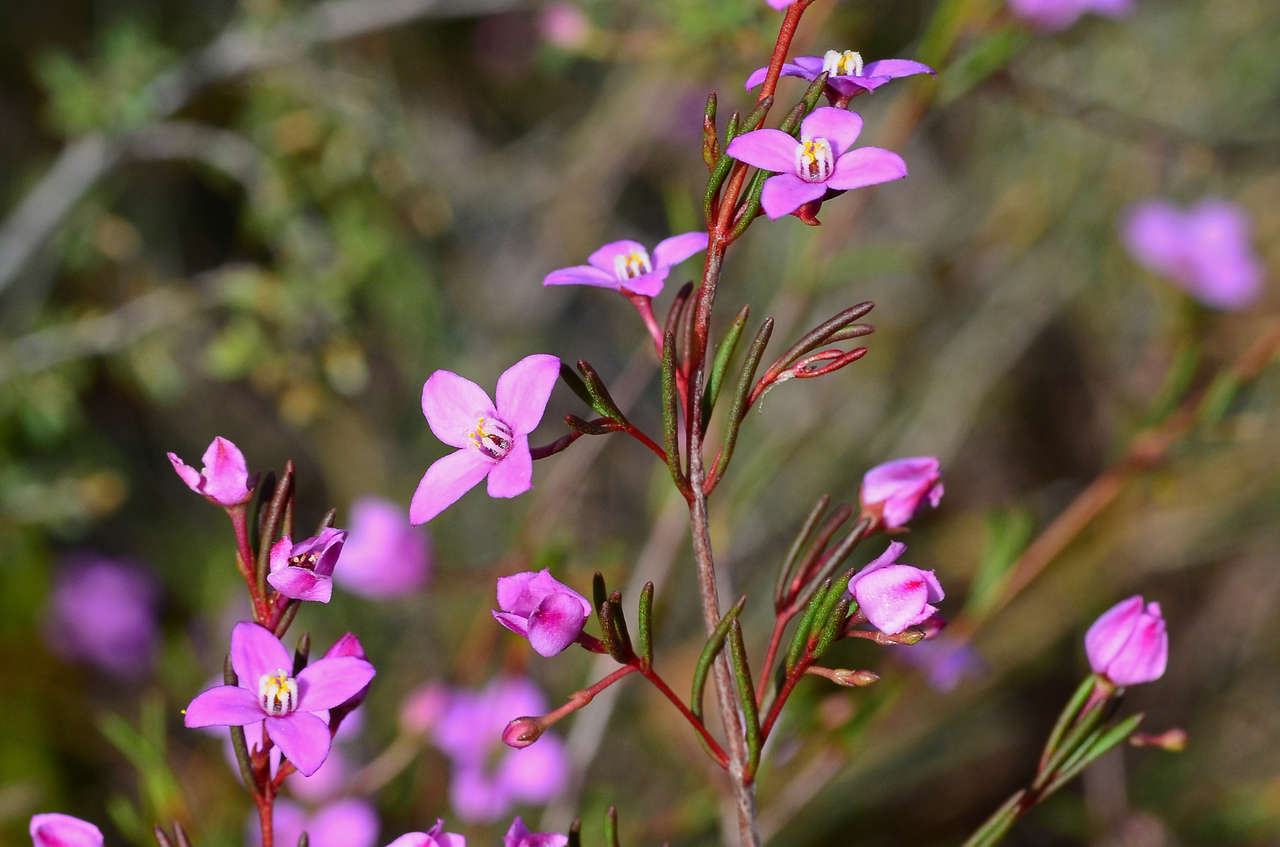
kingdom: Plantae
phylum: Tracheophyta
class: Magnoliopsida
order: Sapindales
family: Rutaceae
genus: Boronia
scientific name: Boronia filifolia
